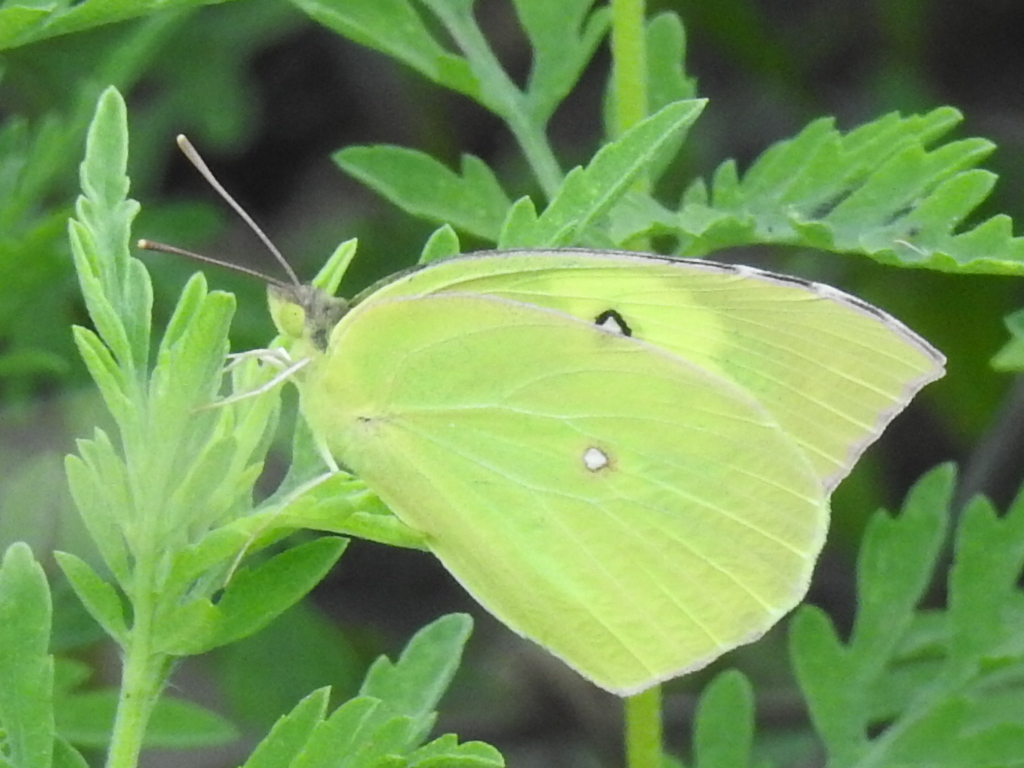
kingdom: Animalia
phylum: Arthropoda
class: Insecta
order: Lepidoptera
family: Pieridae
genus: Zerene
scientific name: Zerene cesonia
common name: Southern dogface
